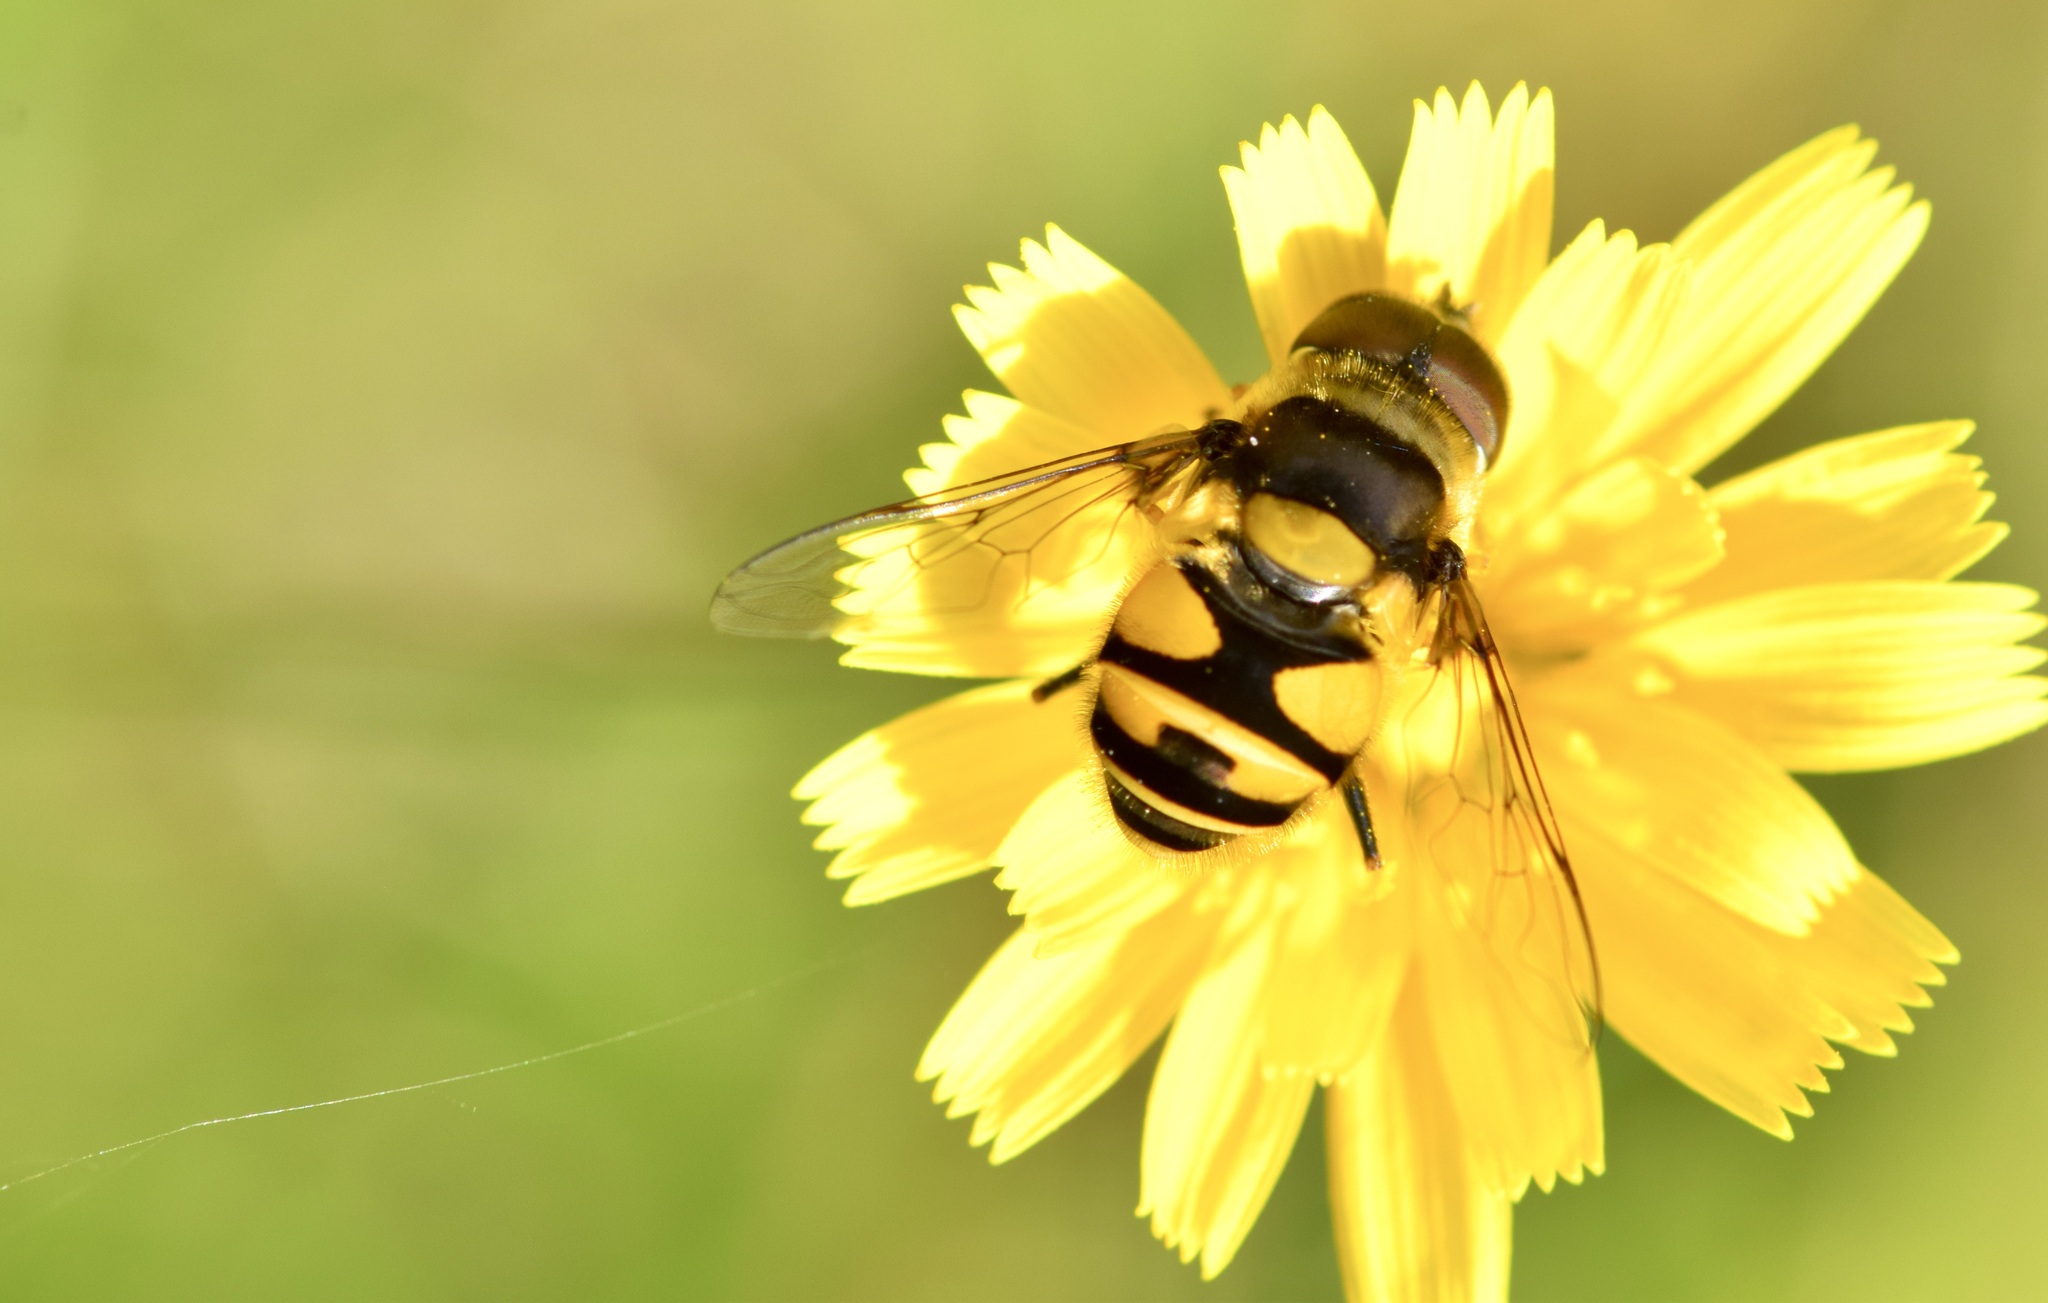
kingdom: Animalia
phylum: Arthropoda
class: Insecta
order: Diptera
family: Syrphidae
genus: Eristalis
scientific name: Eristalis transversa
